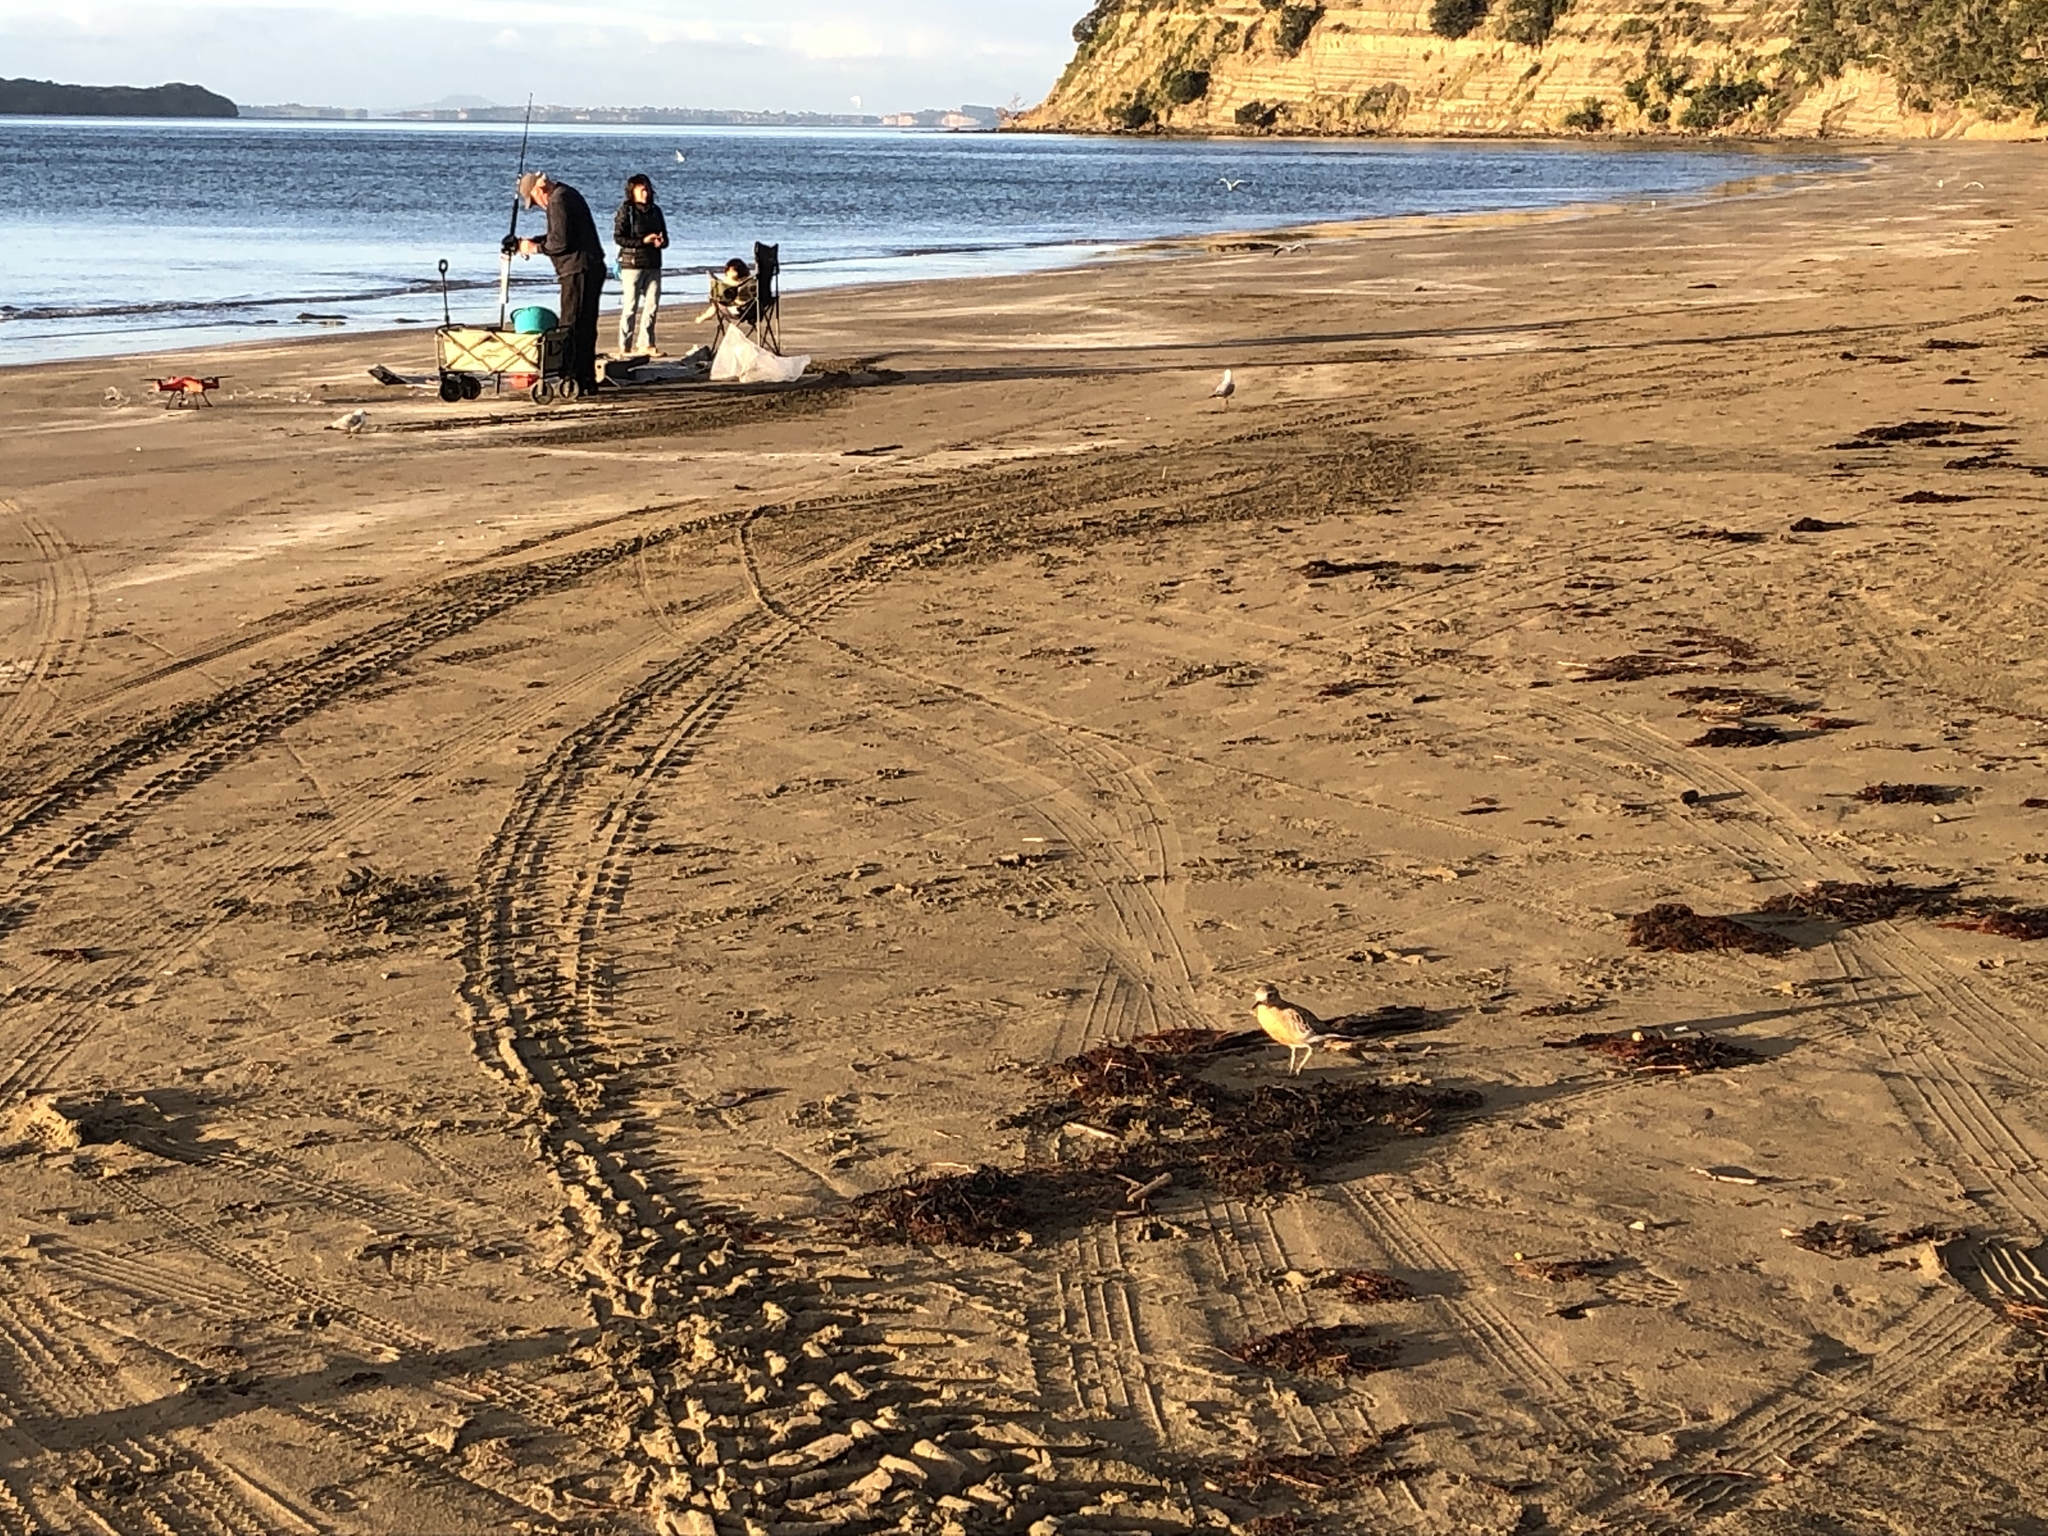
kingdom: Animalia
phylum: Chordata
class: Aves
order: Charadriiformes
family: Charadriidae
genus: Anarhynchus
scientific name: Anarhynchus
